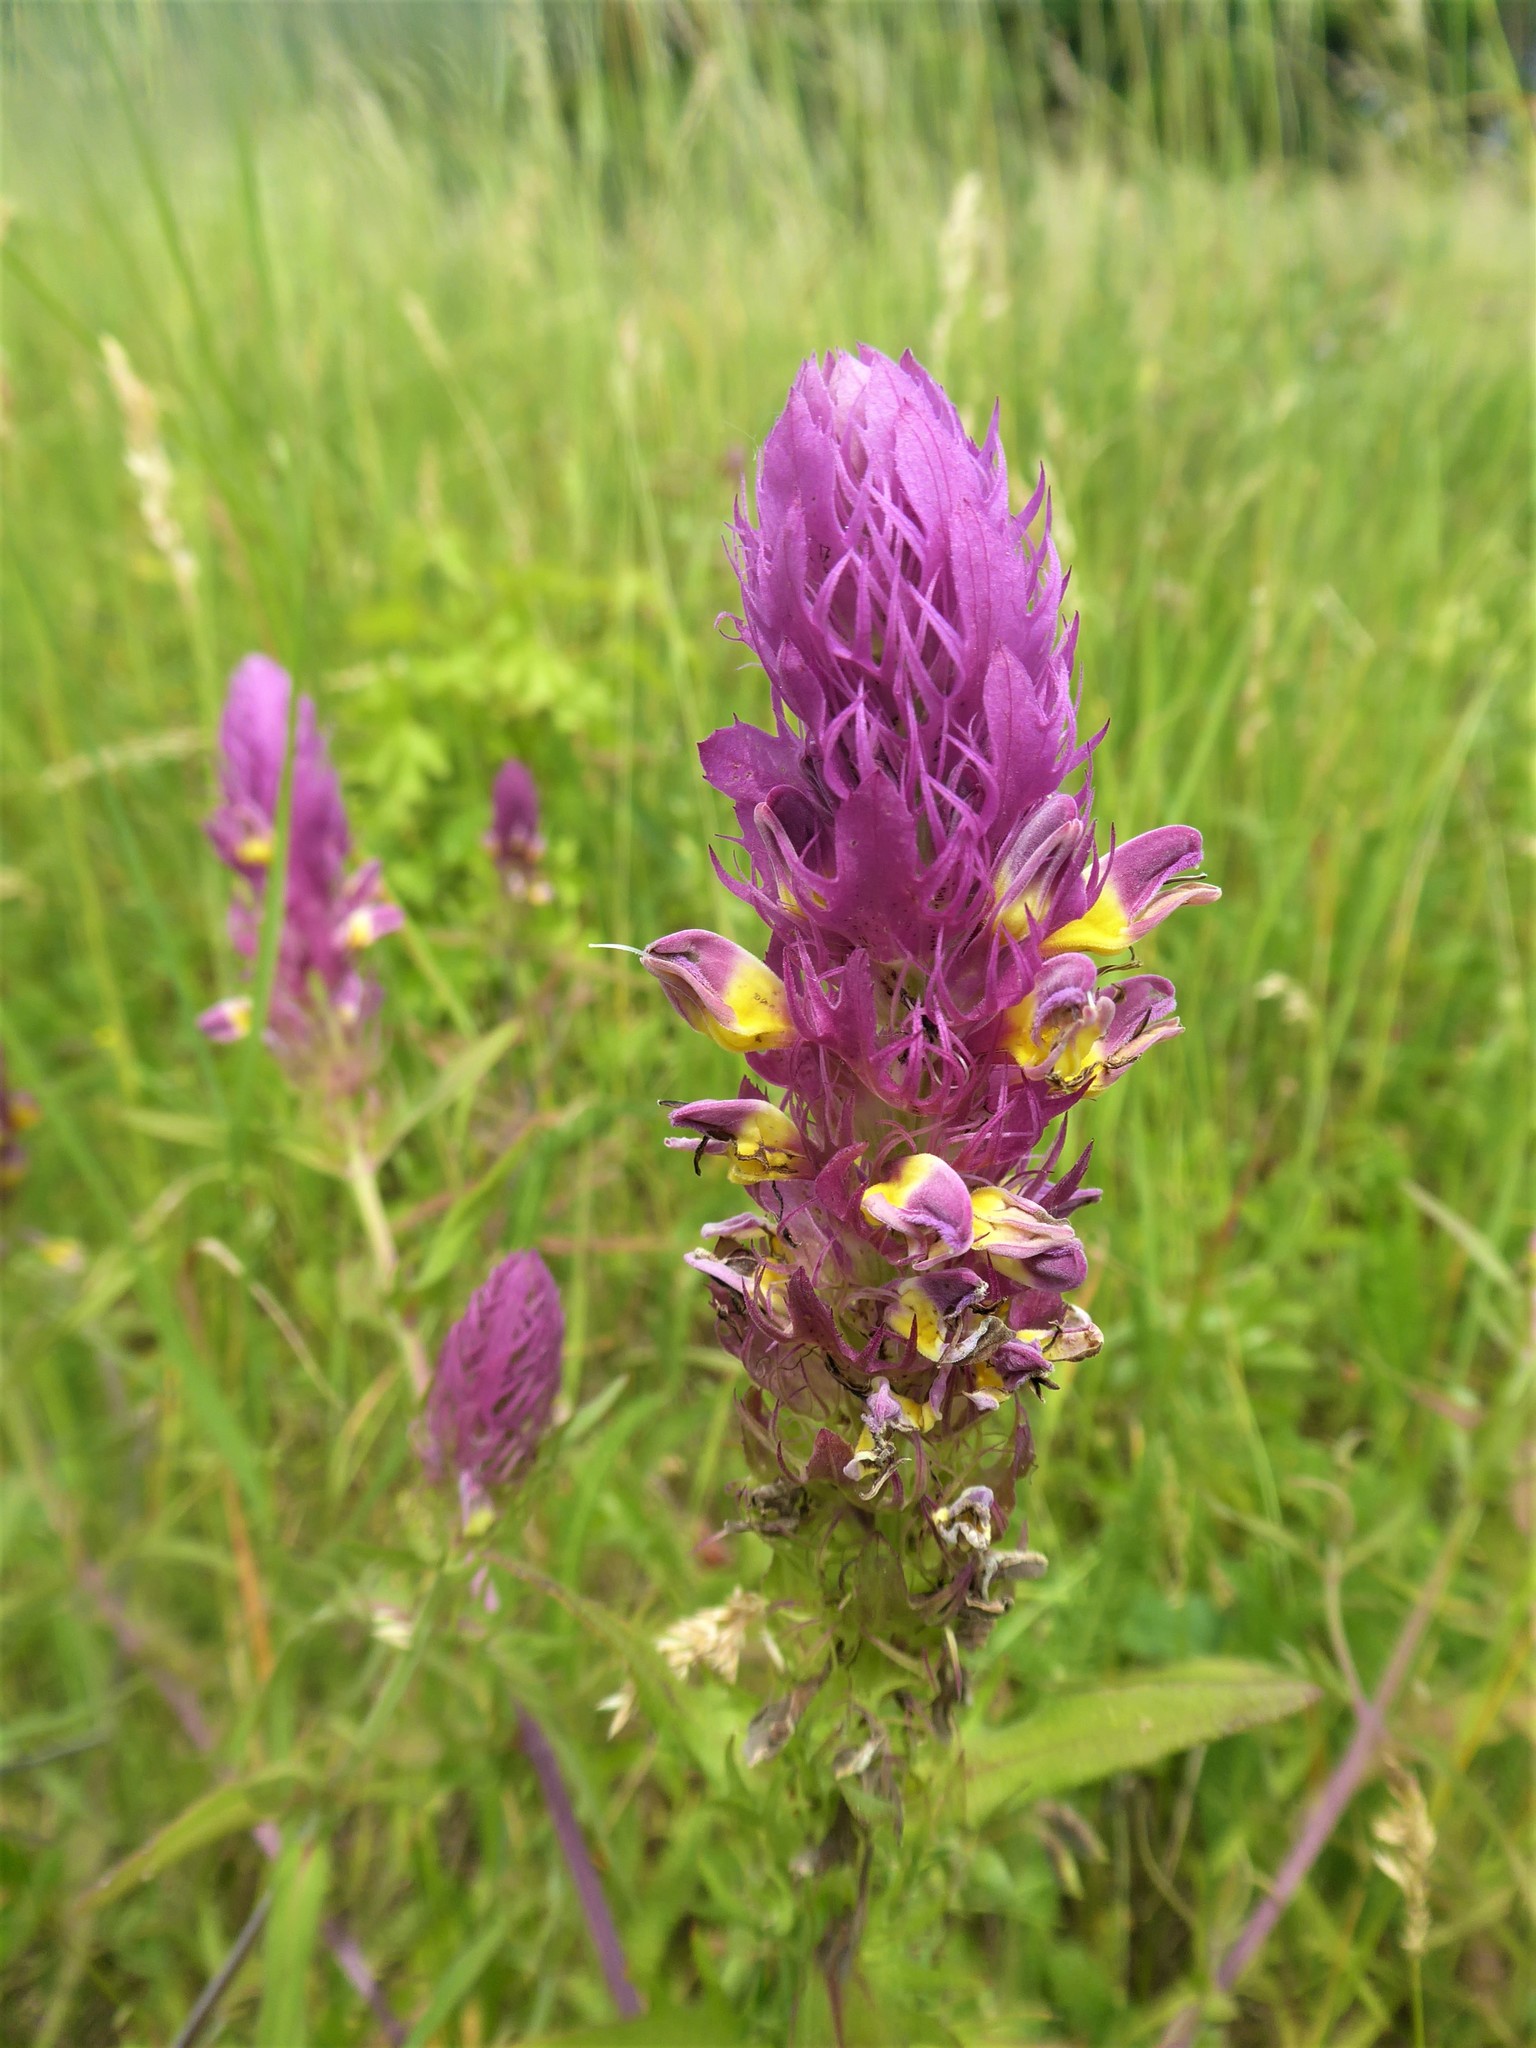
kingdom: Plantae
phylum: Tracheophyta
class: Magnoliopsida
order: Lamiales
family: Orobanchaceae
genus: Melampyrum
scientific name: Melampyrum arvense
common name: Field cow-wheat
